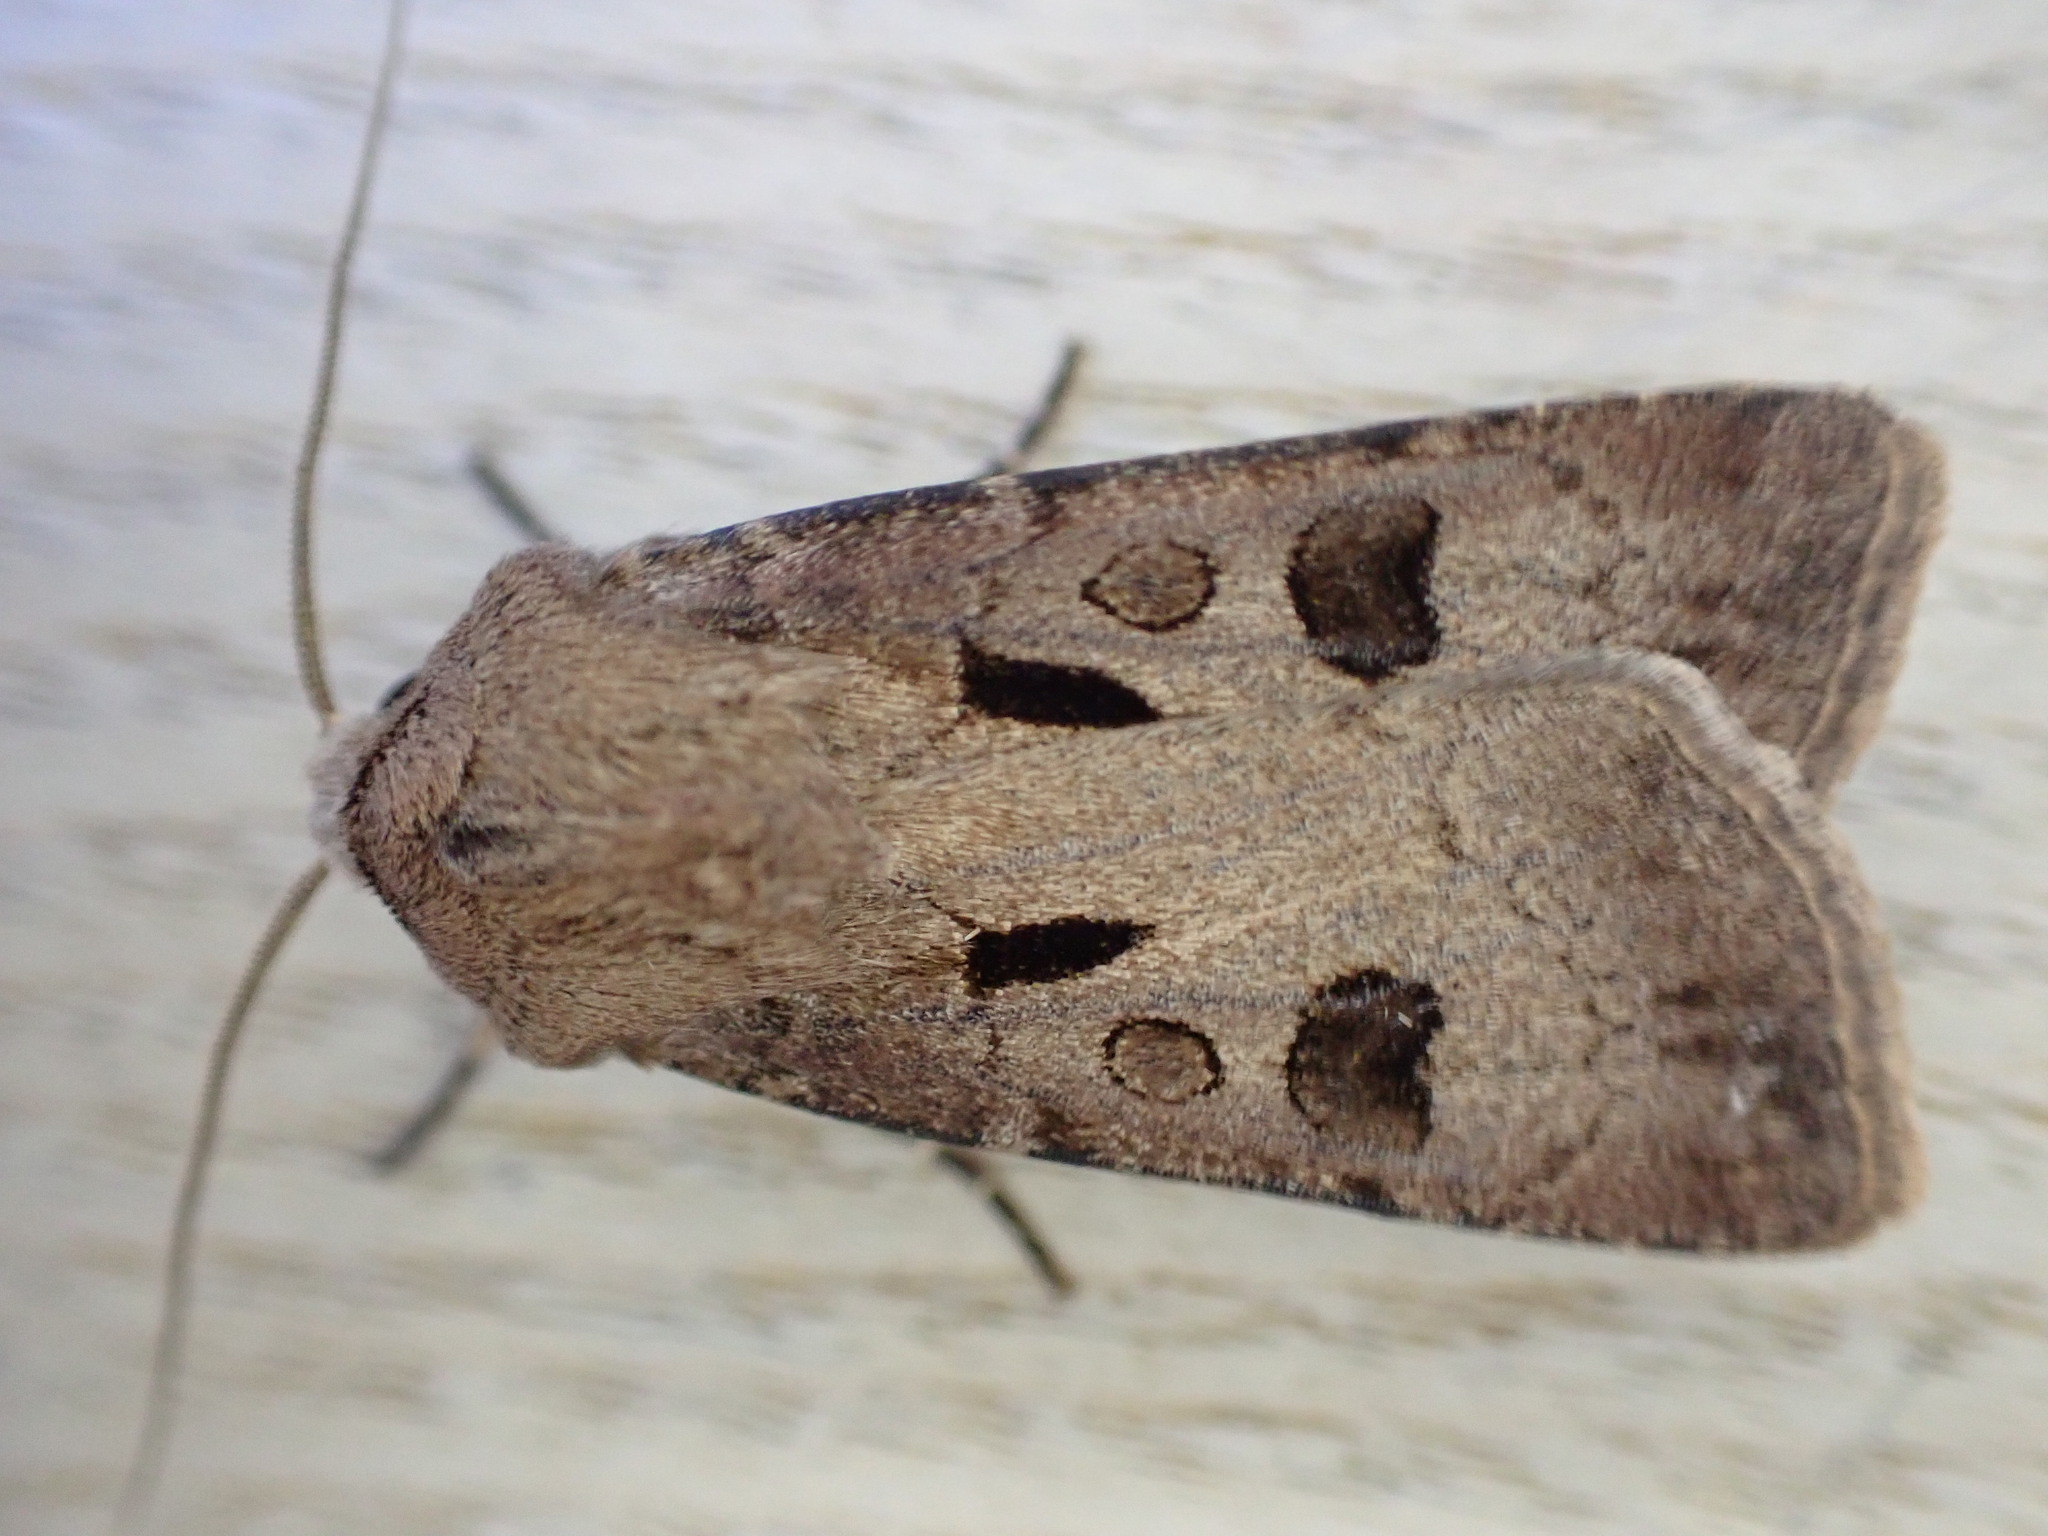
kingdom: Animalia
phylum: Arthropoda
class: Insecta
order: Lepidoptera
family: Noctuidae
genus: Agrotis
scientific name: Agrotis exclamationis
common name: Heart and dart
